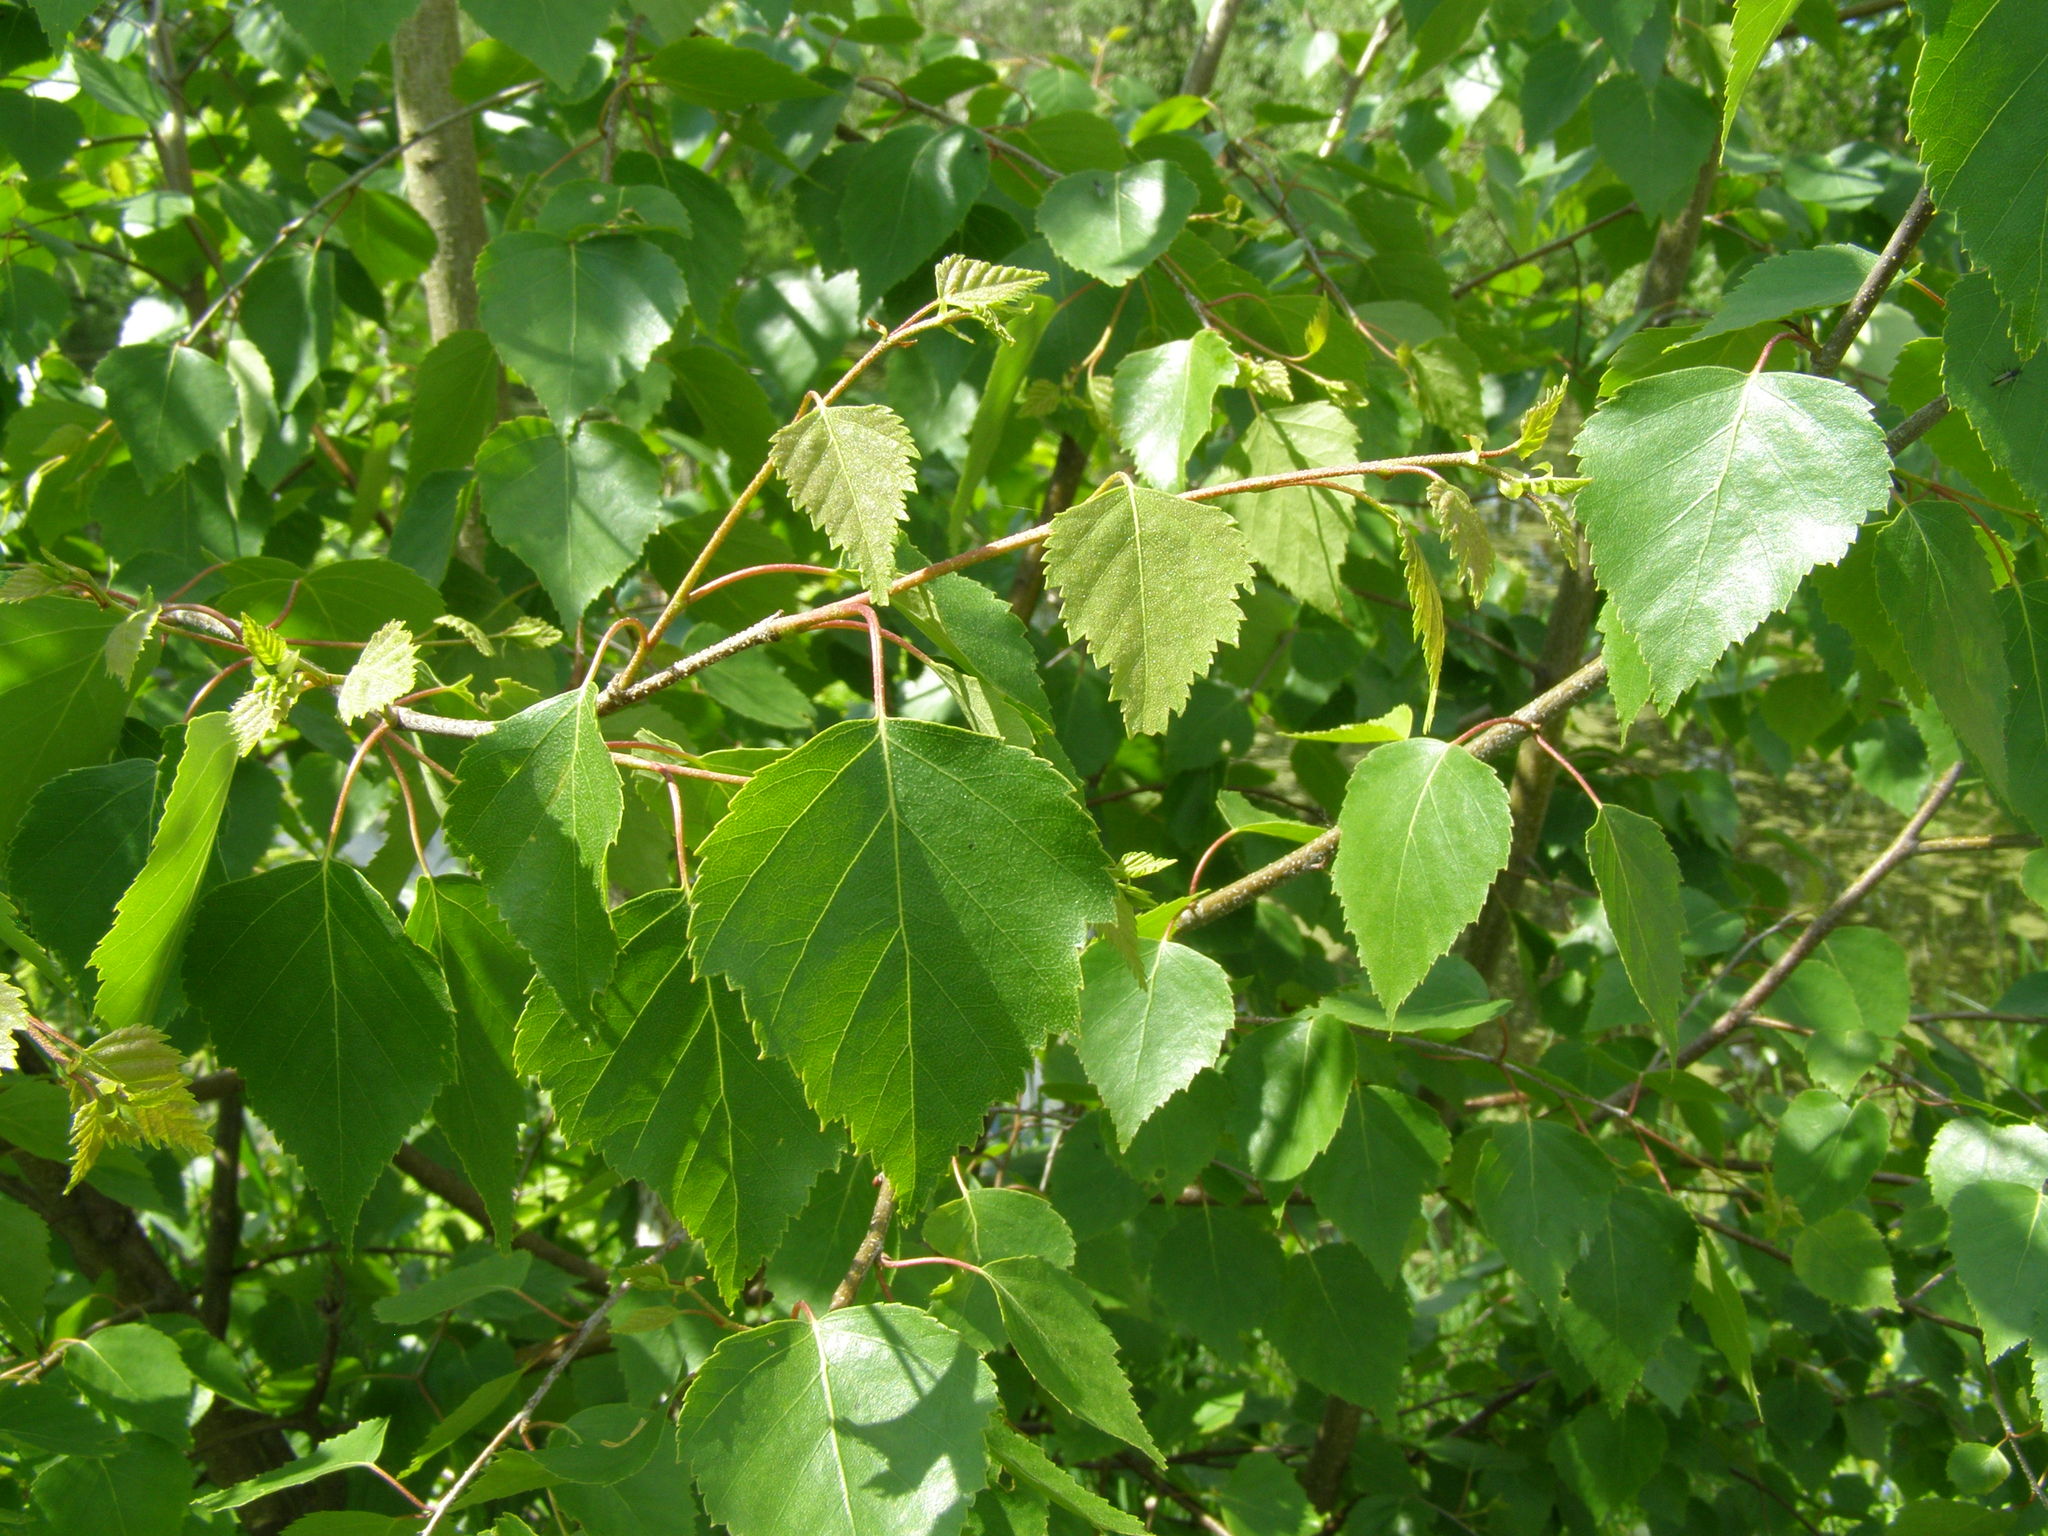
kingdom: Plantae
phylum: Tracheophyta
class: Magnoliopsida
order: Fagales
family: Betulaceae
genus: Betula
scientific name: Betula pendula
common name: Silver birch
